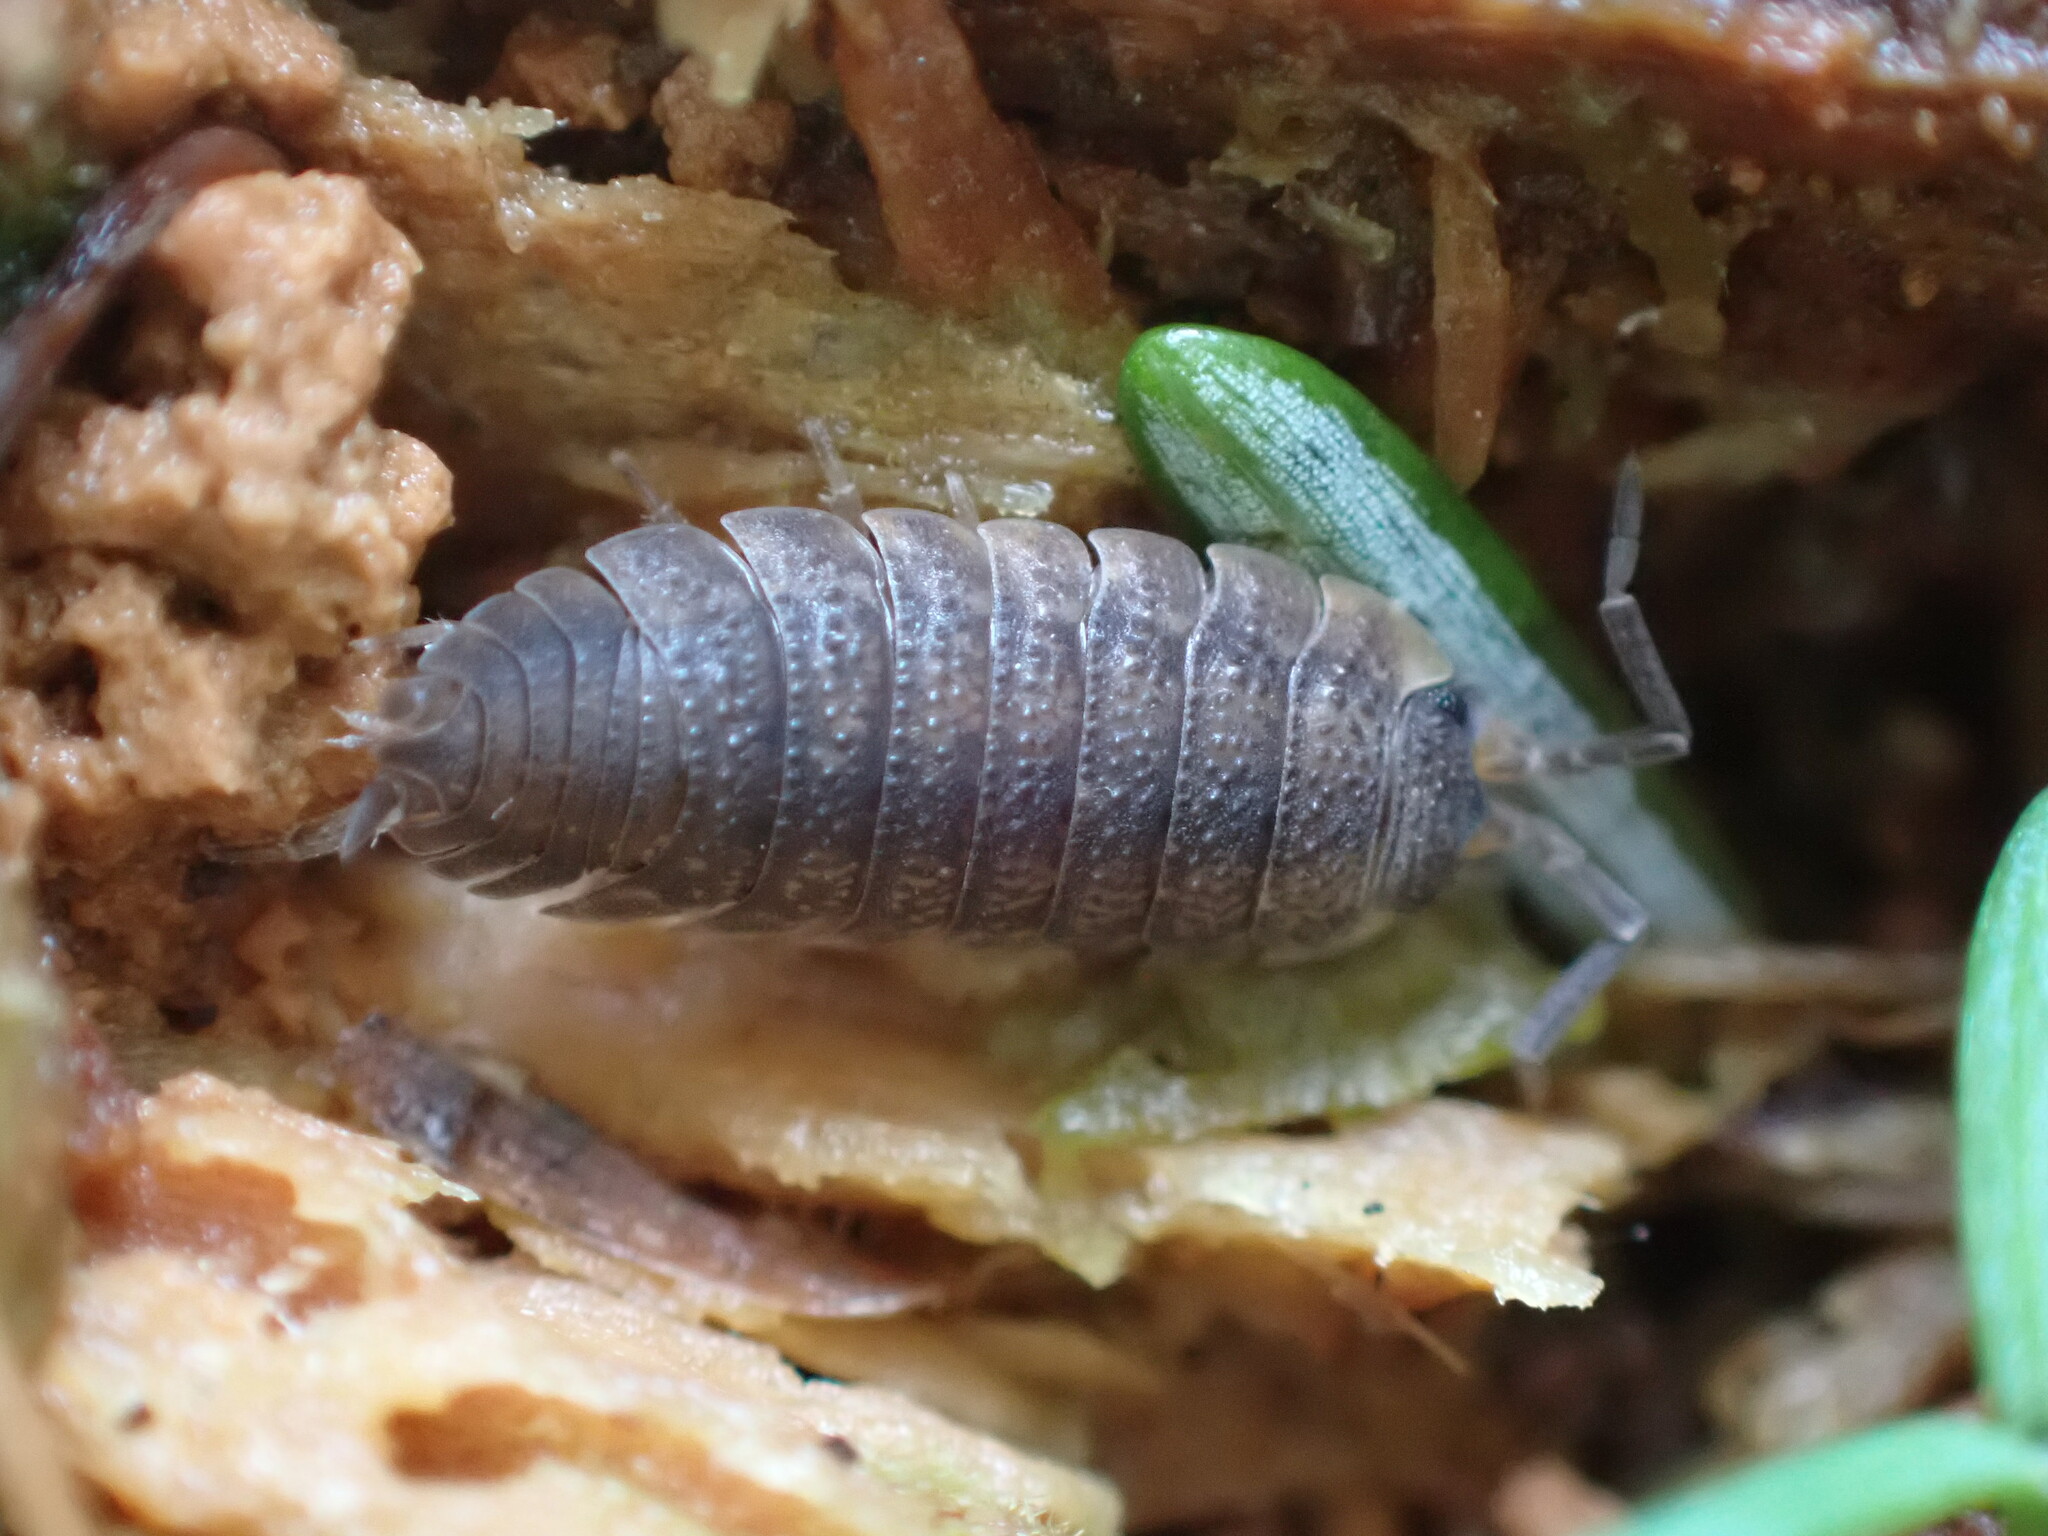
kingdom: Animalia
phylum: Arthropoda
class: Malacostraca
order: Isopoda
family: Porcellionidae
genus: Porcellio
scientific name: Porcellio scaber
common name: Common rough woodlouse
